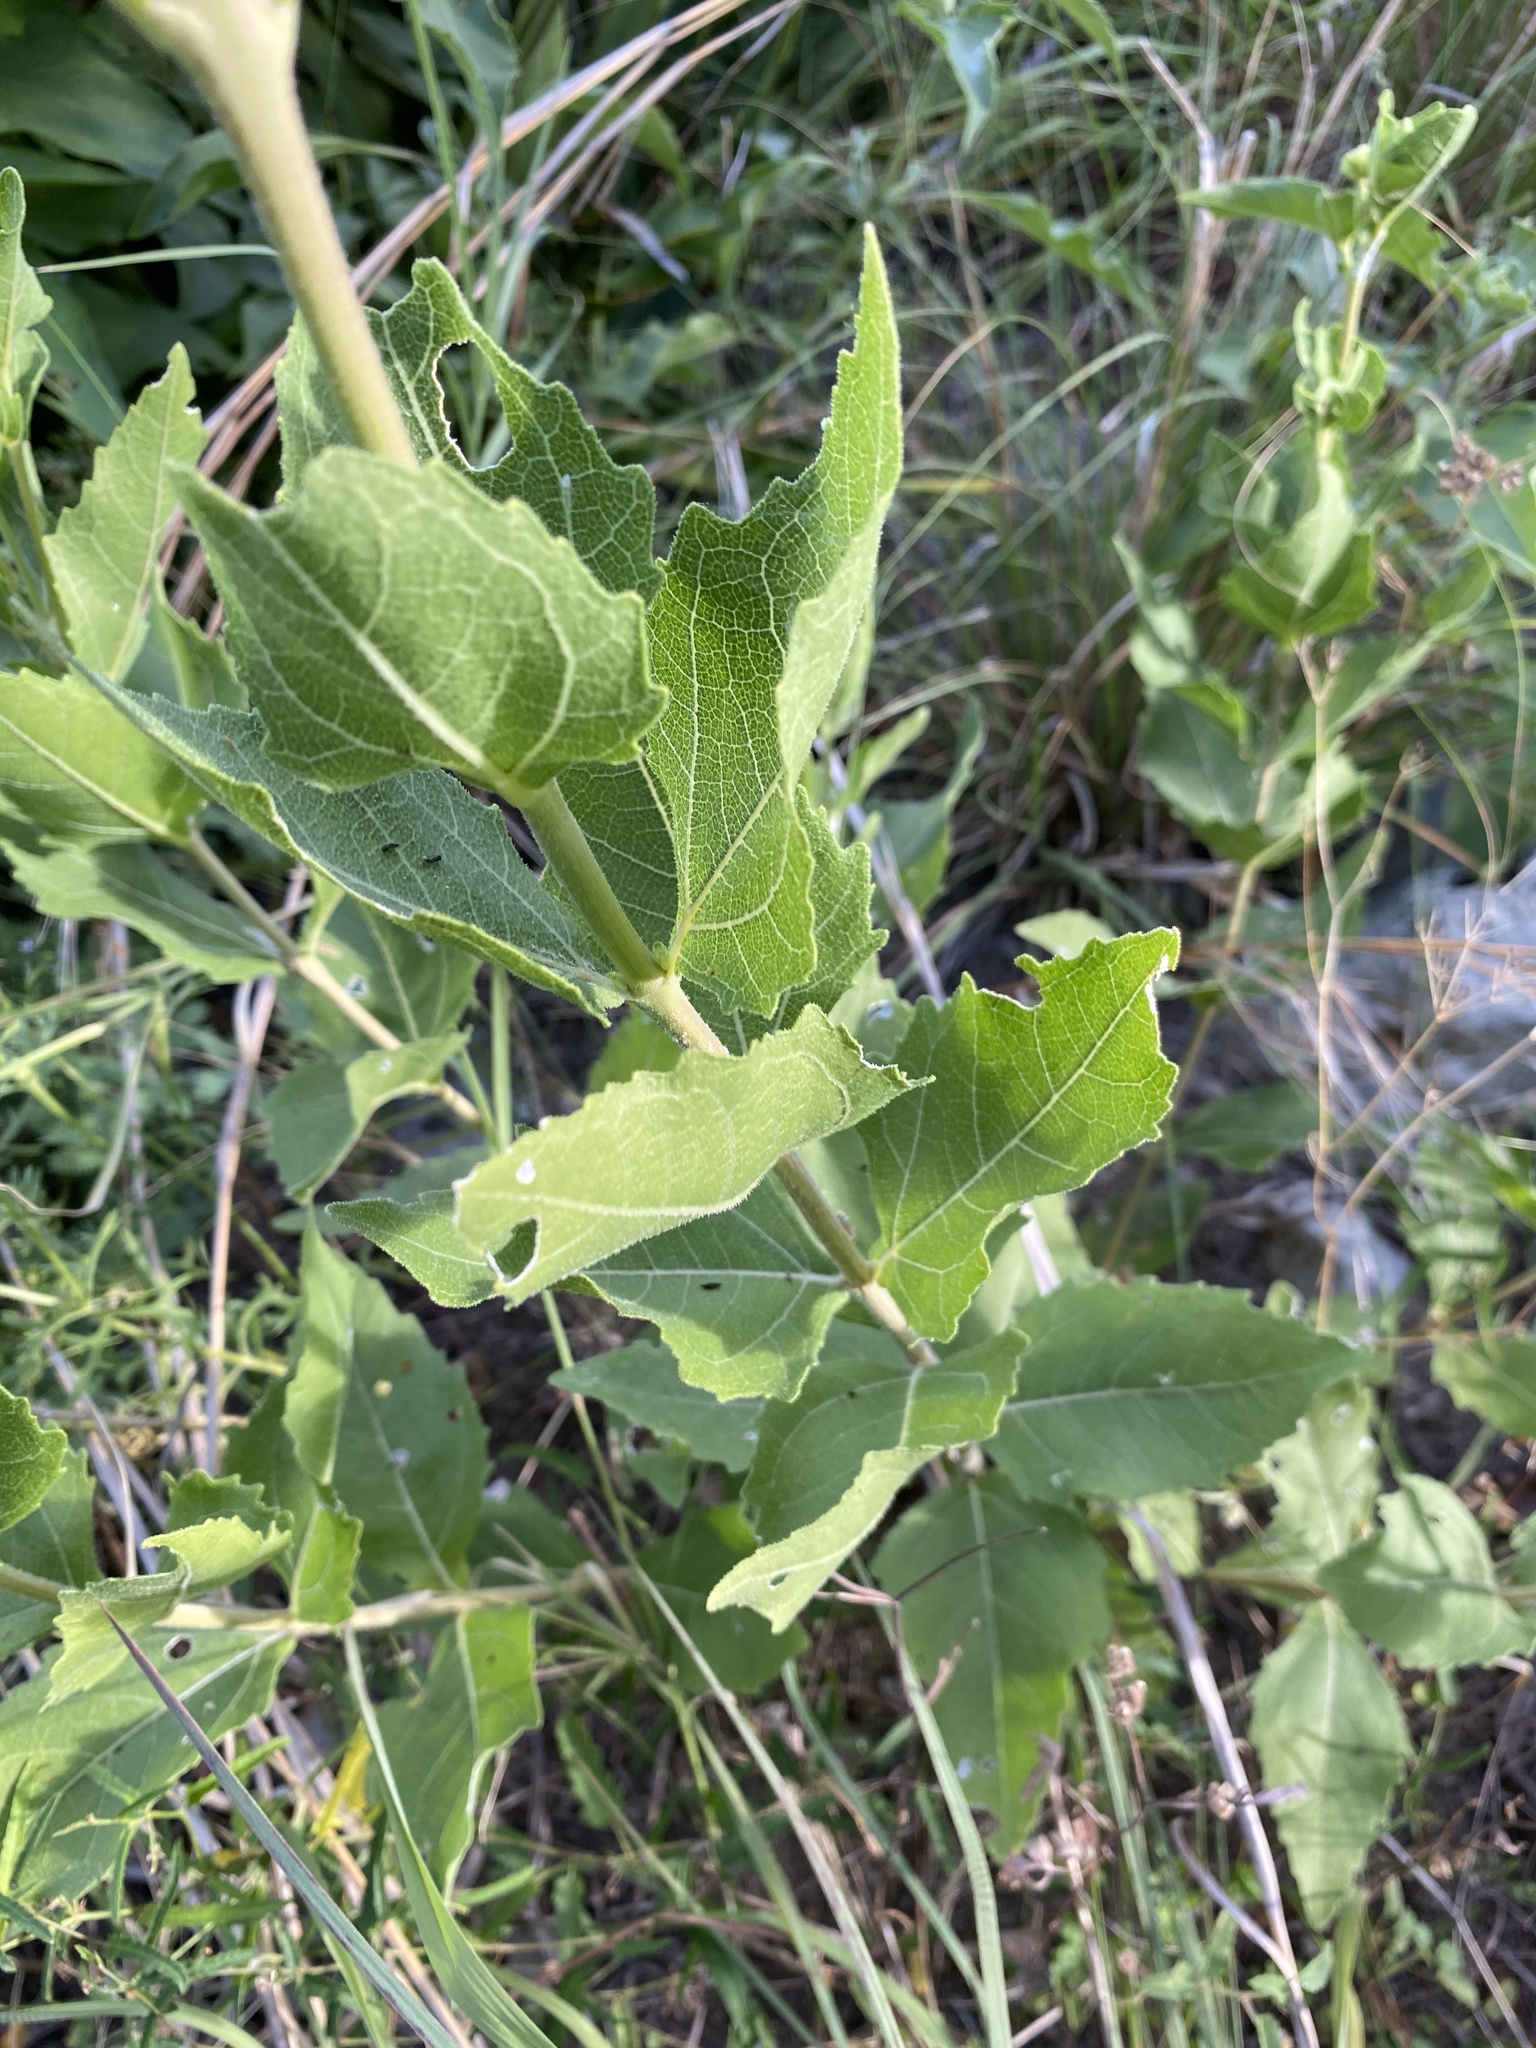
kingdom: Plantae
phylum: Tracheophyta
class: Magnoliopsida
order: Asterales
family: Asteraceae
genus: Verbesina
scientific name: Verbesina lindheimeri
